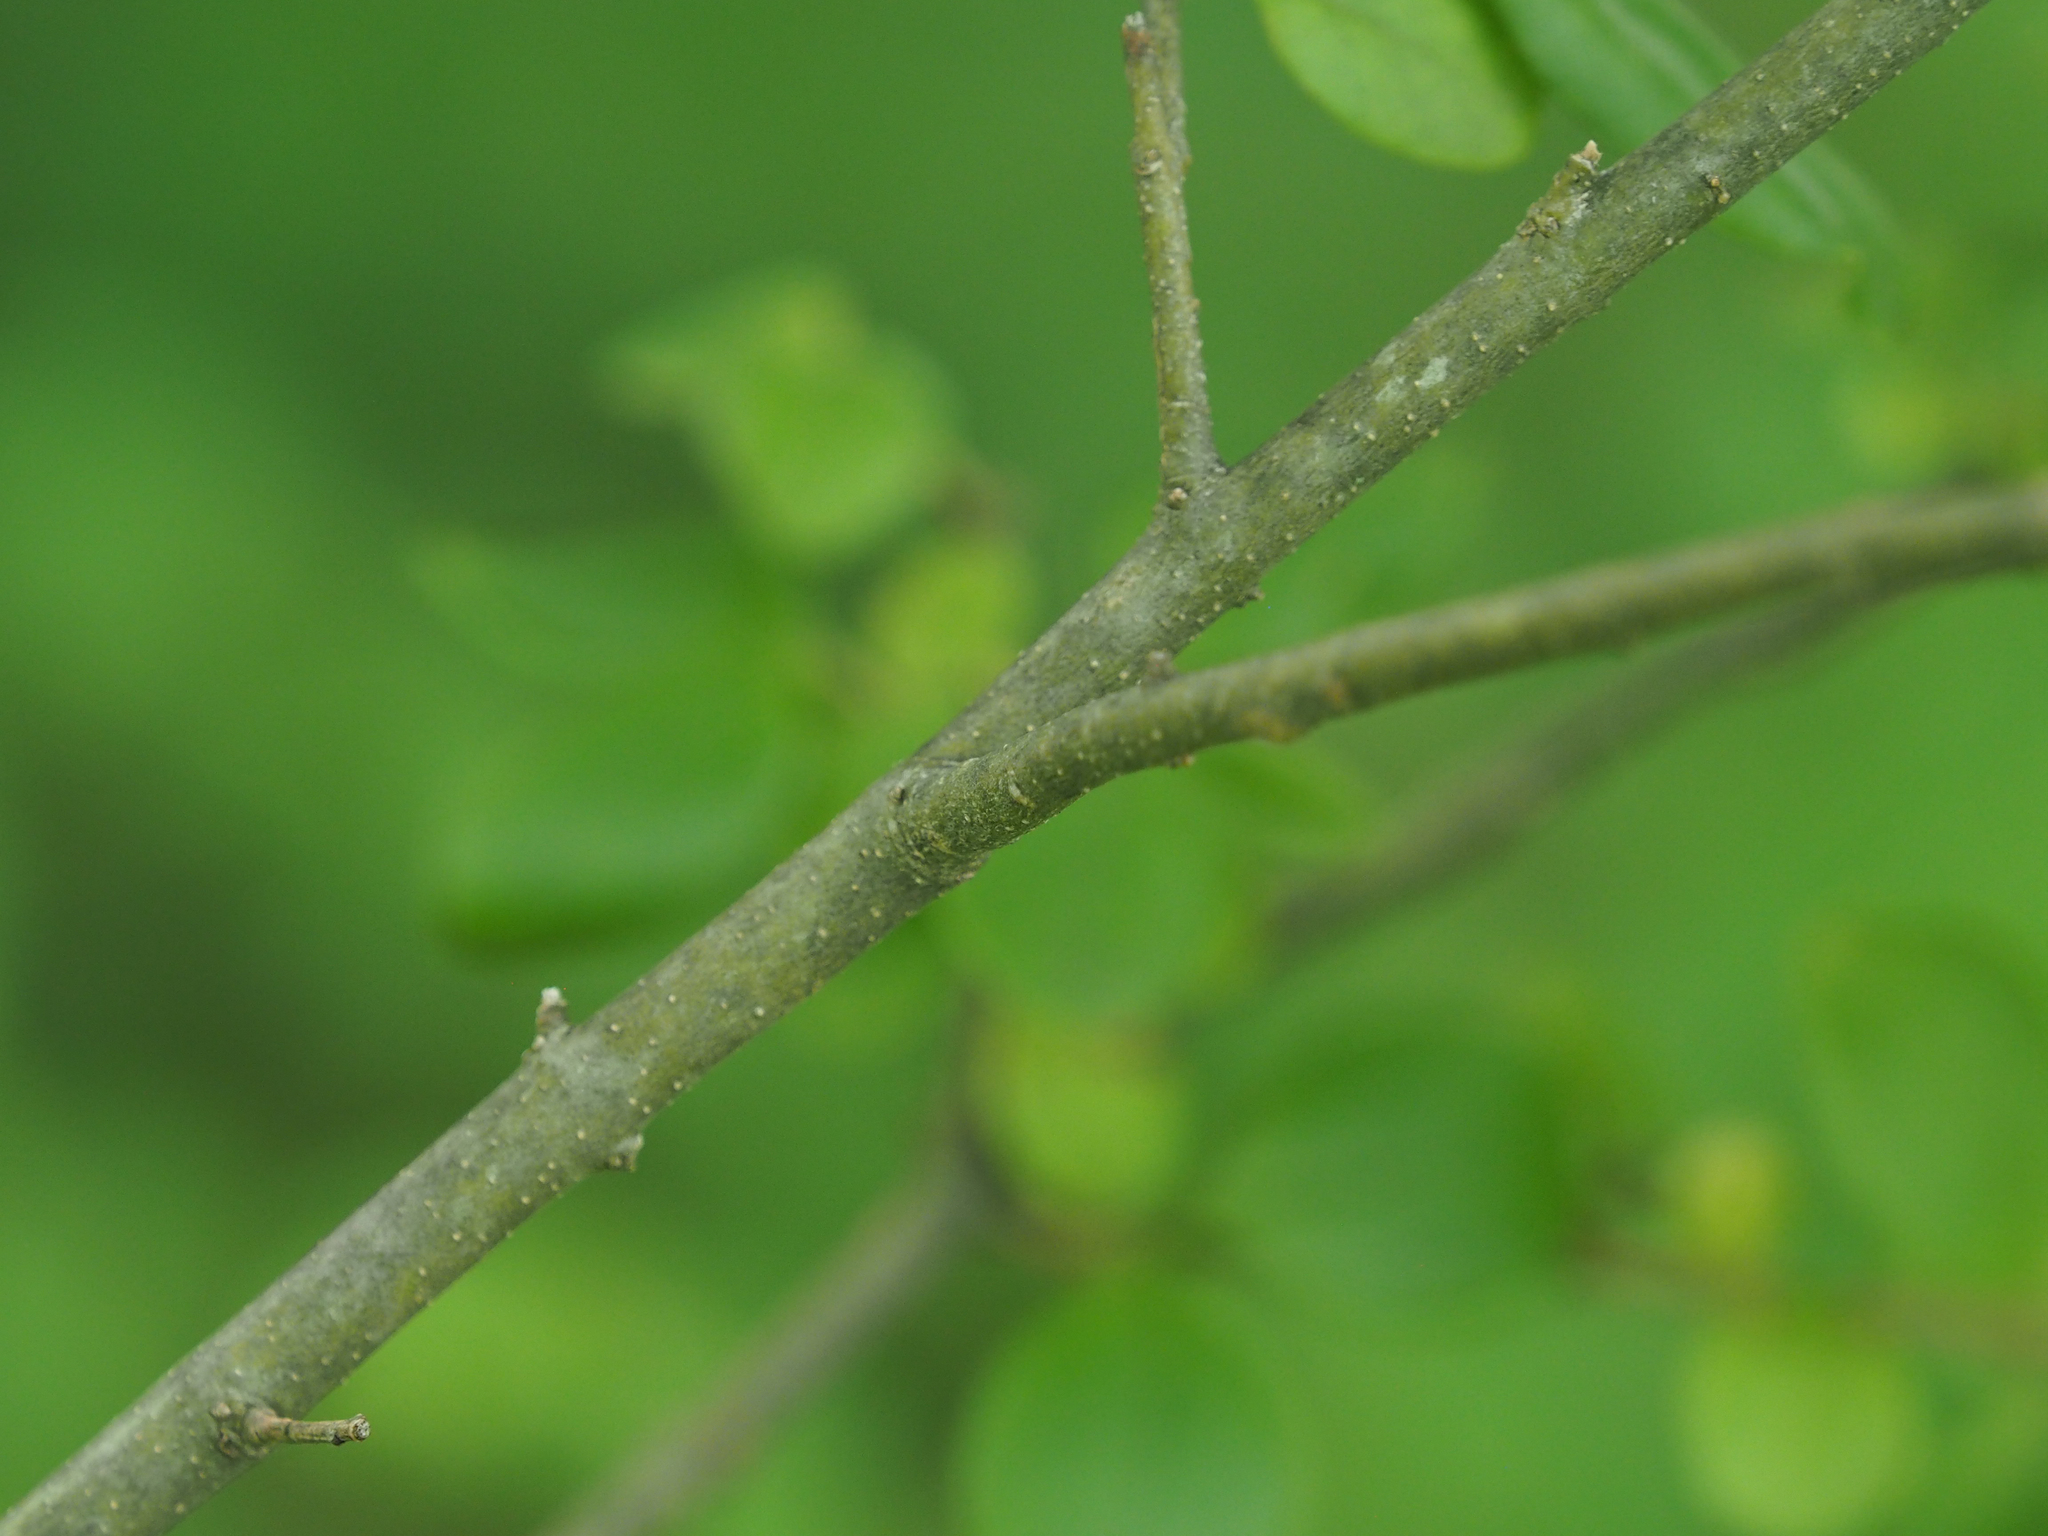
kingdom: Plantae
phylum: Tracheophyta
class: Magnoliopsida
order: Lamiales
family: Oleaceae
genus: Ligustrum
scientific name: Ligustrum sinense
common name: Chinese privet
